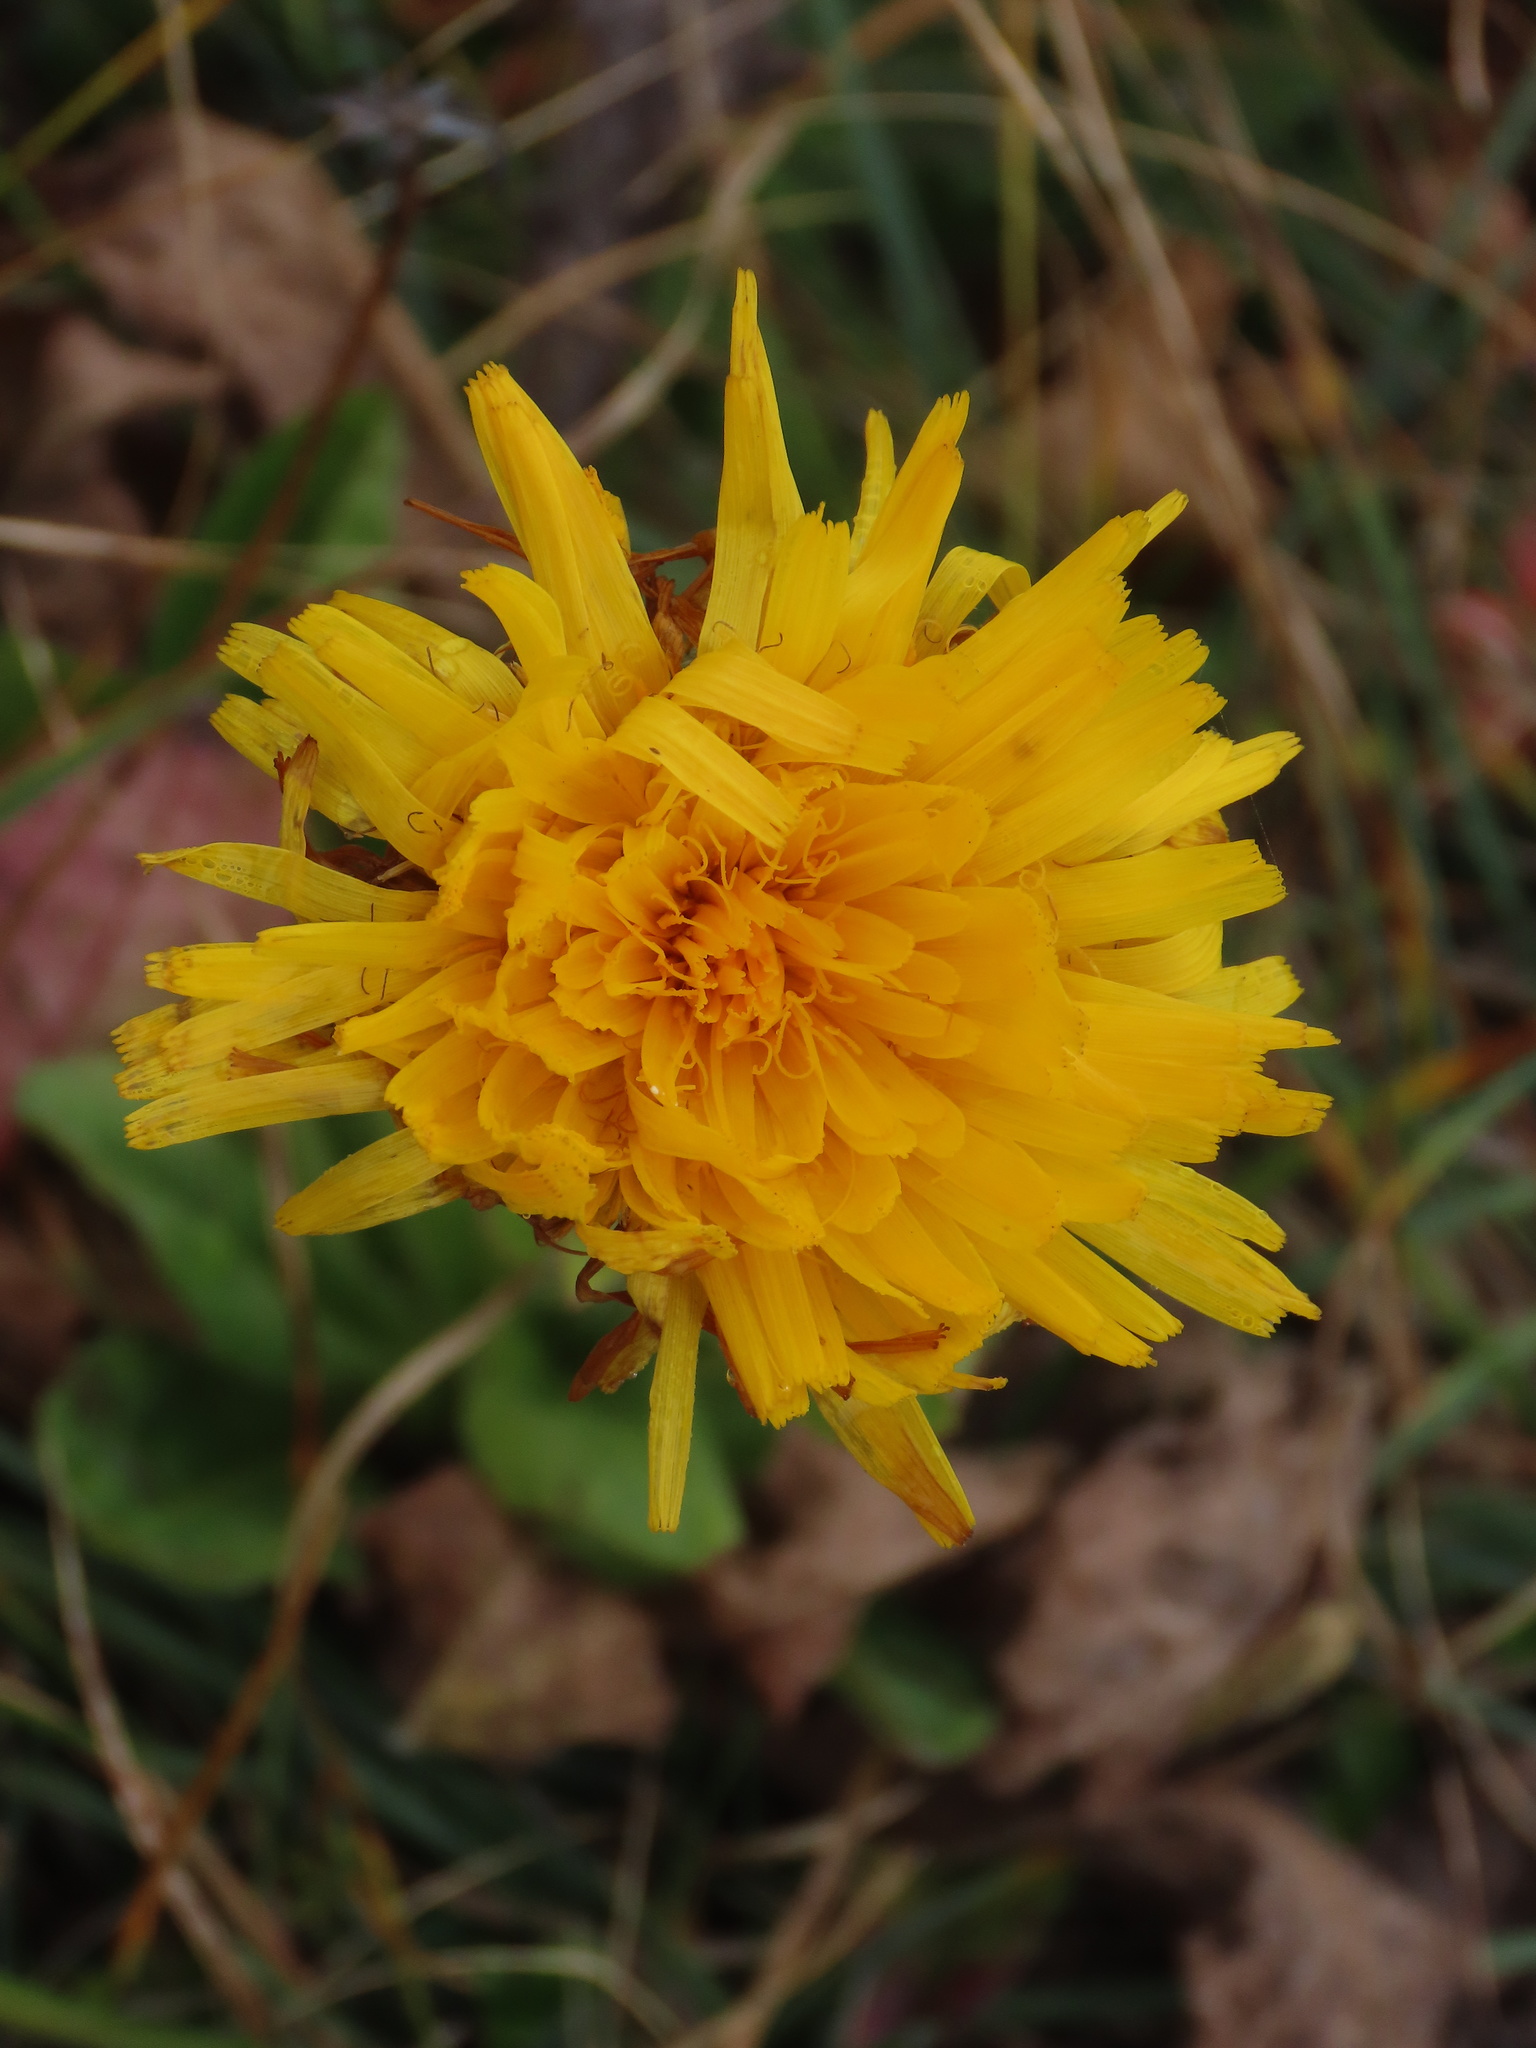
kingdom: Plantae
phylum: Tracheophyta
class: Magnoliopsida
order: Asterales
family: Asteraceae
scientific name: Asteraceae
